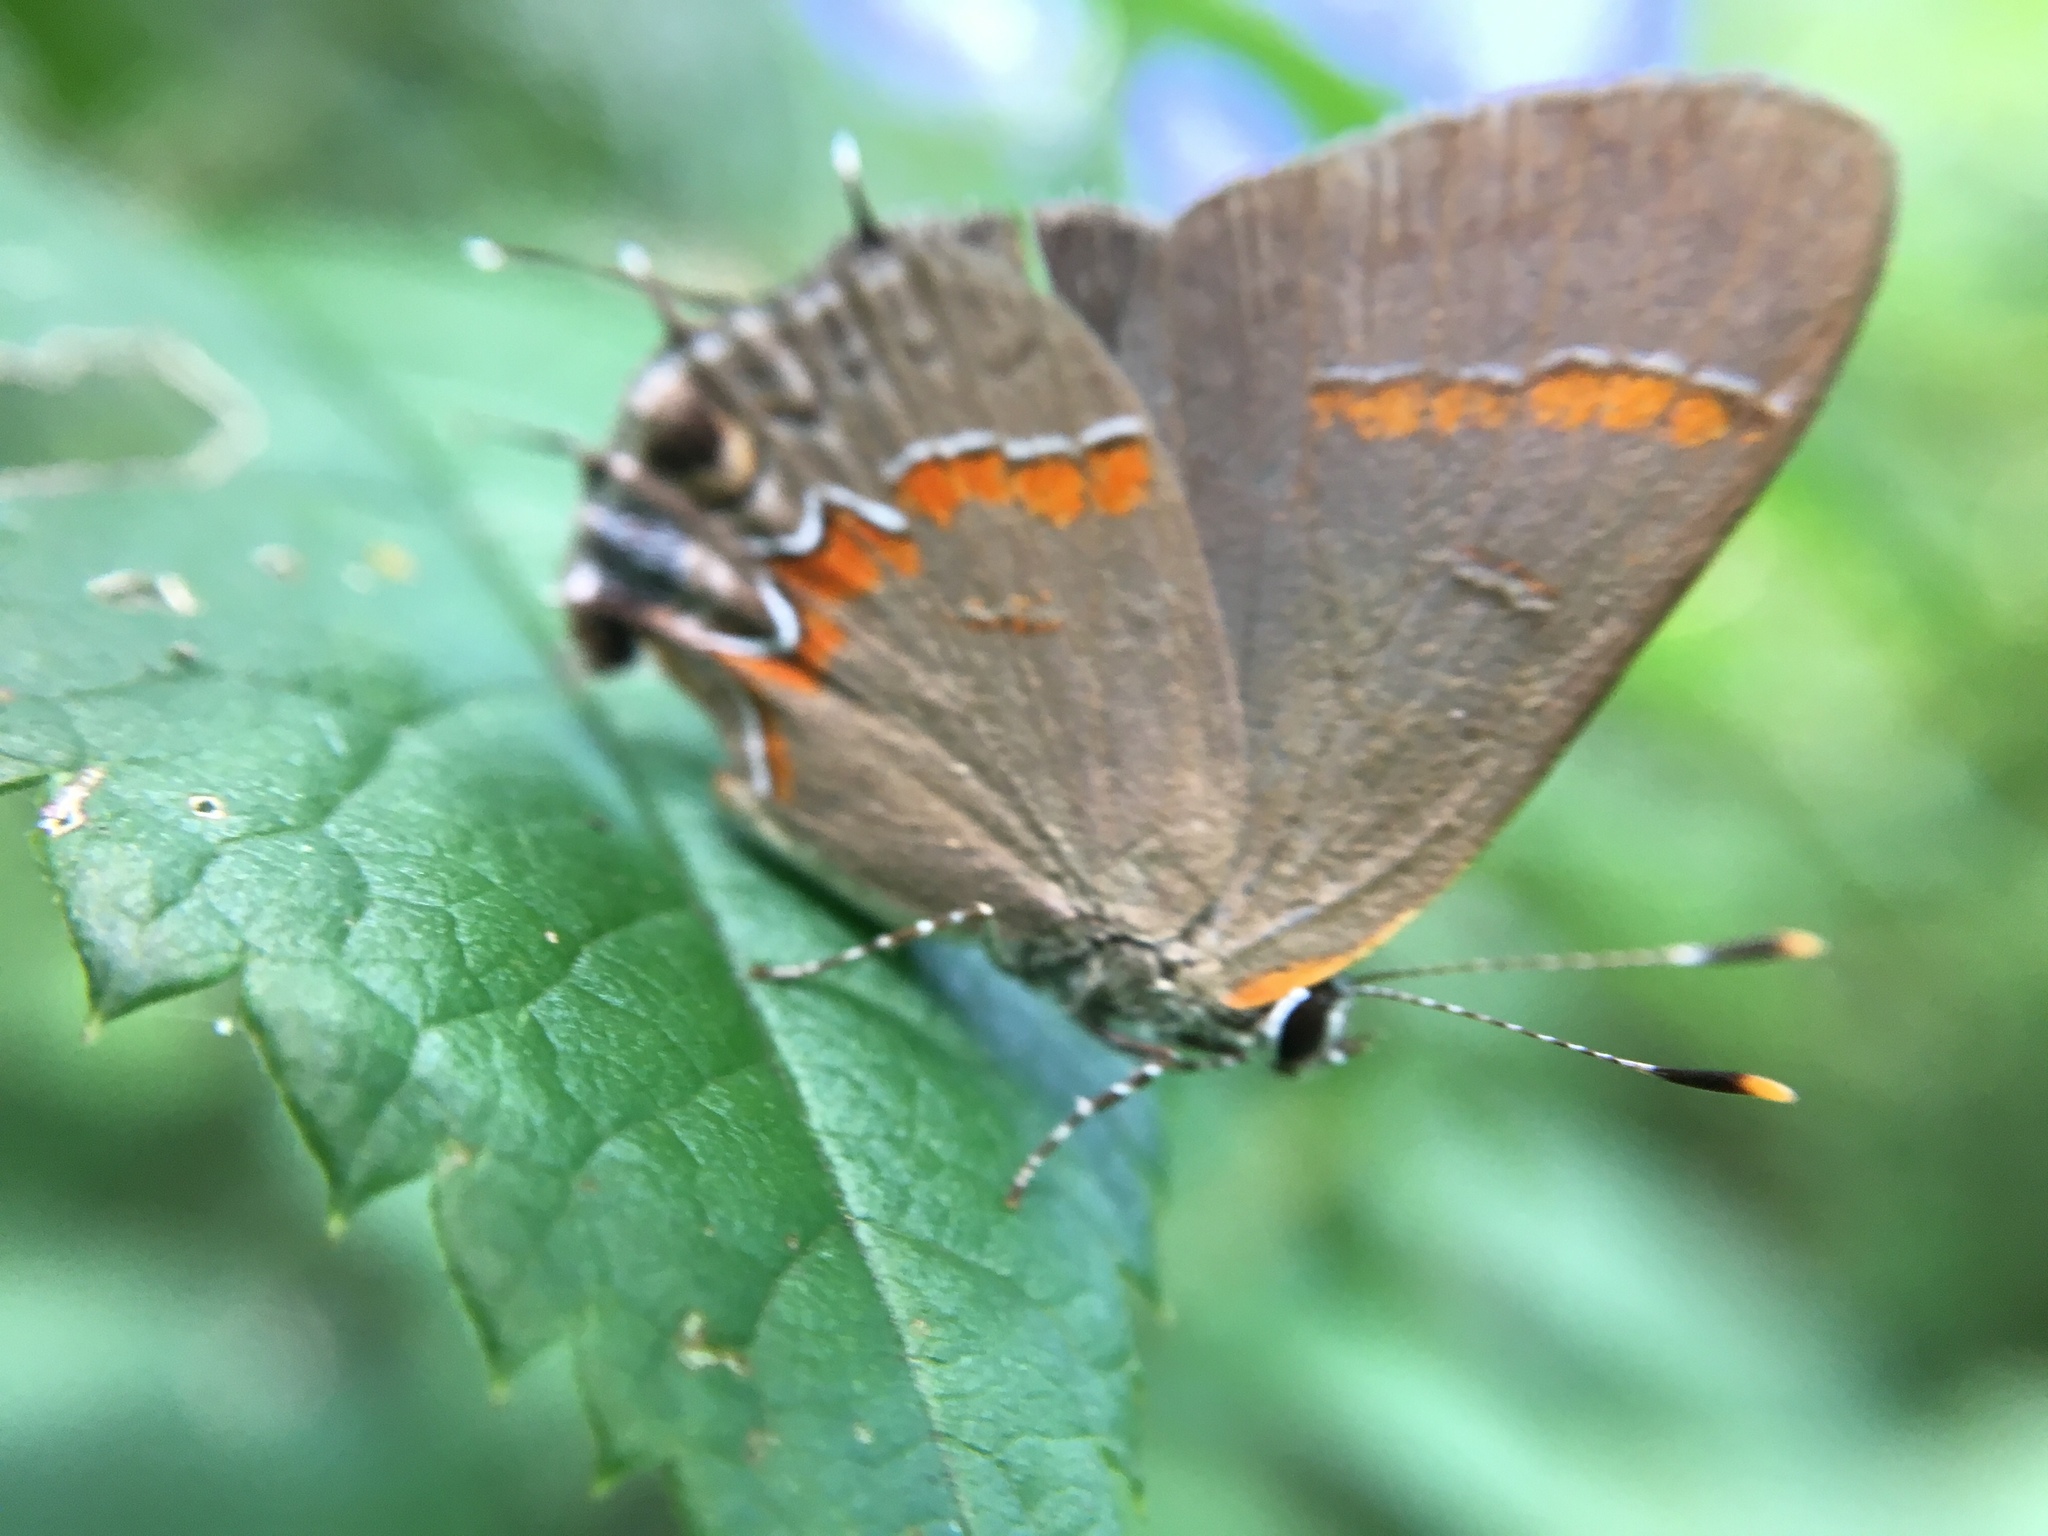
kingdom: Animalia
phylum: Arthropoda
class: Insecta
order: Lepidoptera
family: Lycaenidae
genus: Calycopis
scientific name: Calycopis cecrops
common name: Red-banded hairstreak
